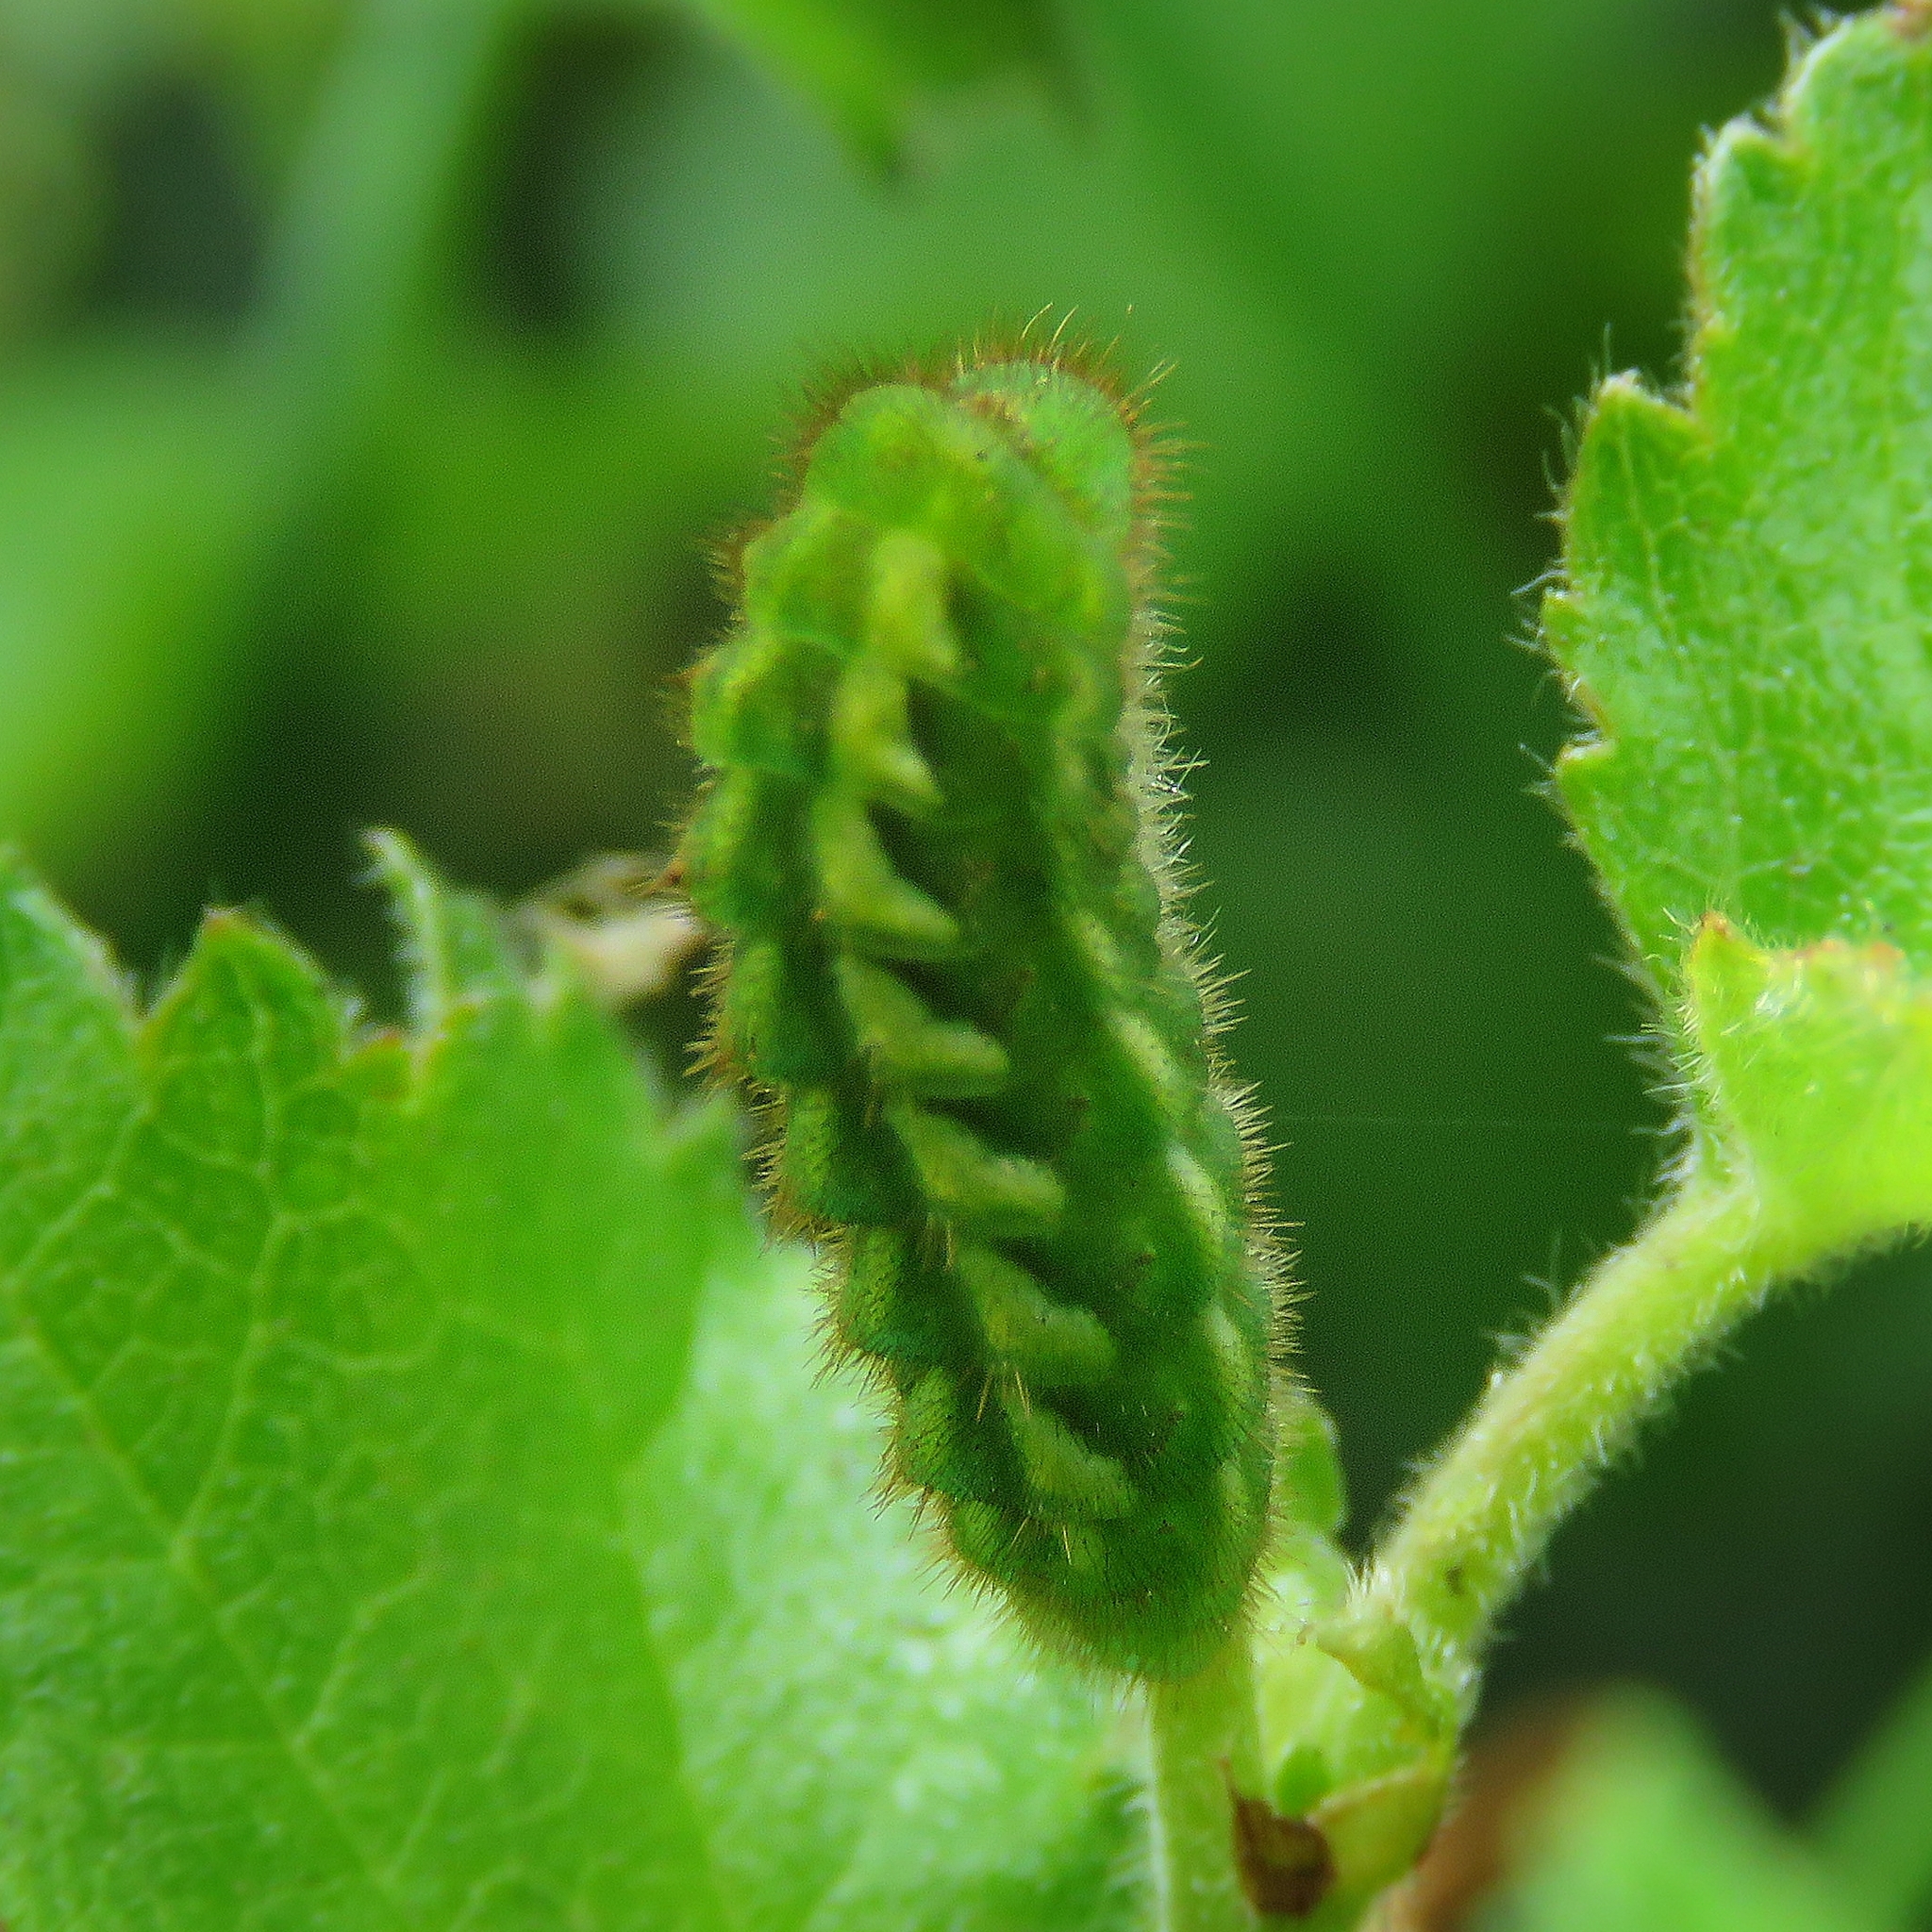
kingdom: Animalia
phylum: Arthropoda
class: Insecta
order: Lepidoptera
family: Lycaenidae
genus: Callophrys
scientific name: Callophrys rubi
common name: Green hairstreak
